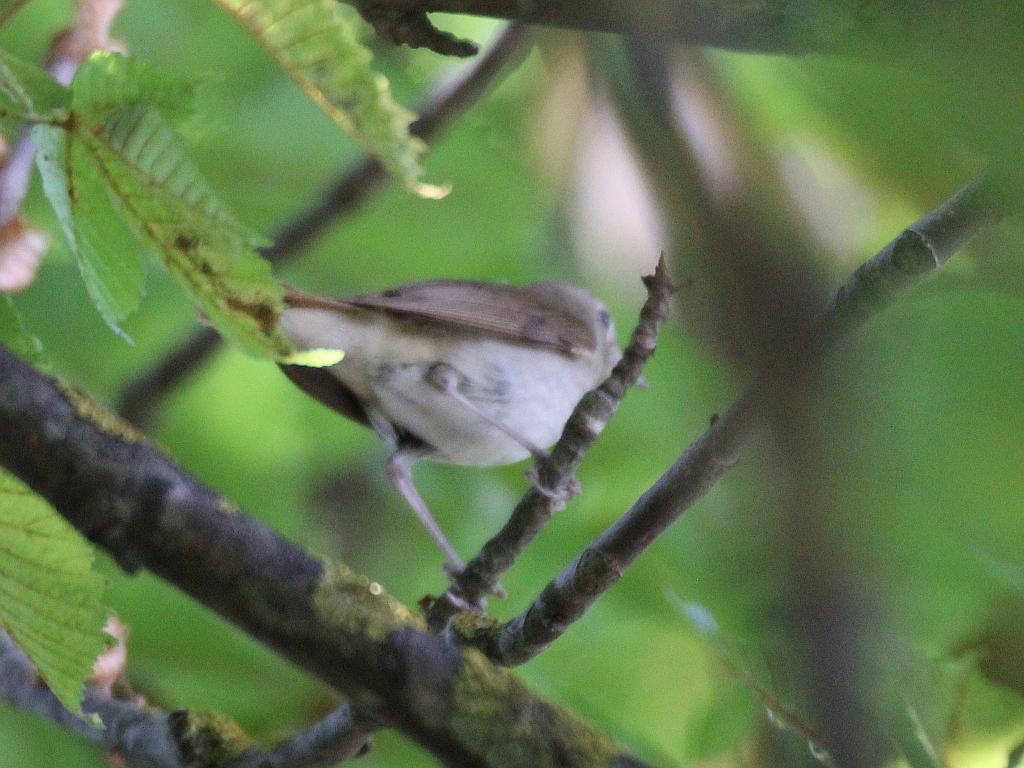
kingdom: Animalia
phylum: Chordata
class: Aves
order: Passeriformes
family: Muscicapidae
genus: Luscinia
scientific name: Luscinia megarhynchos
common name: Common nightingale
